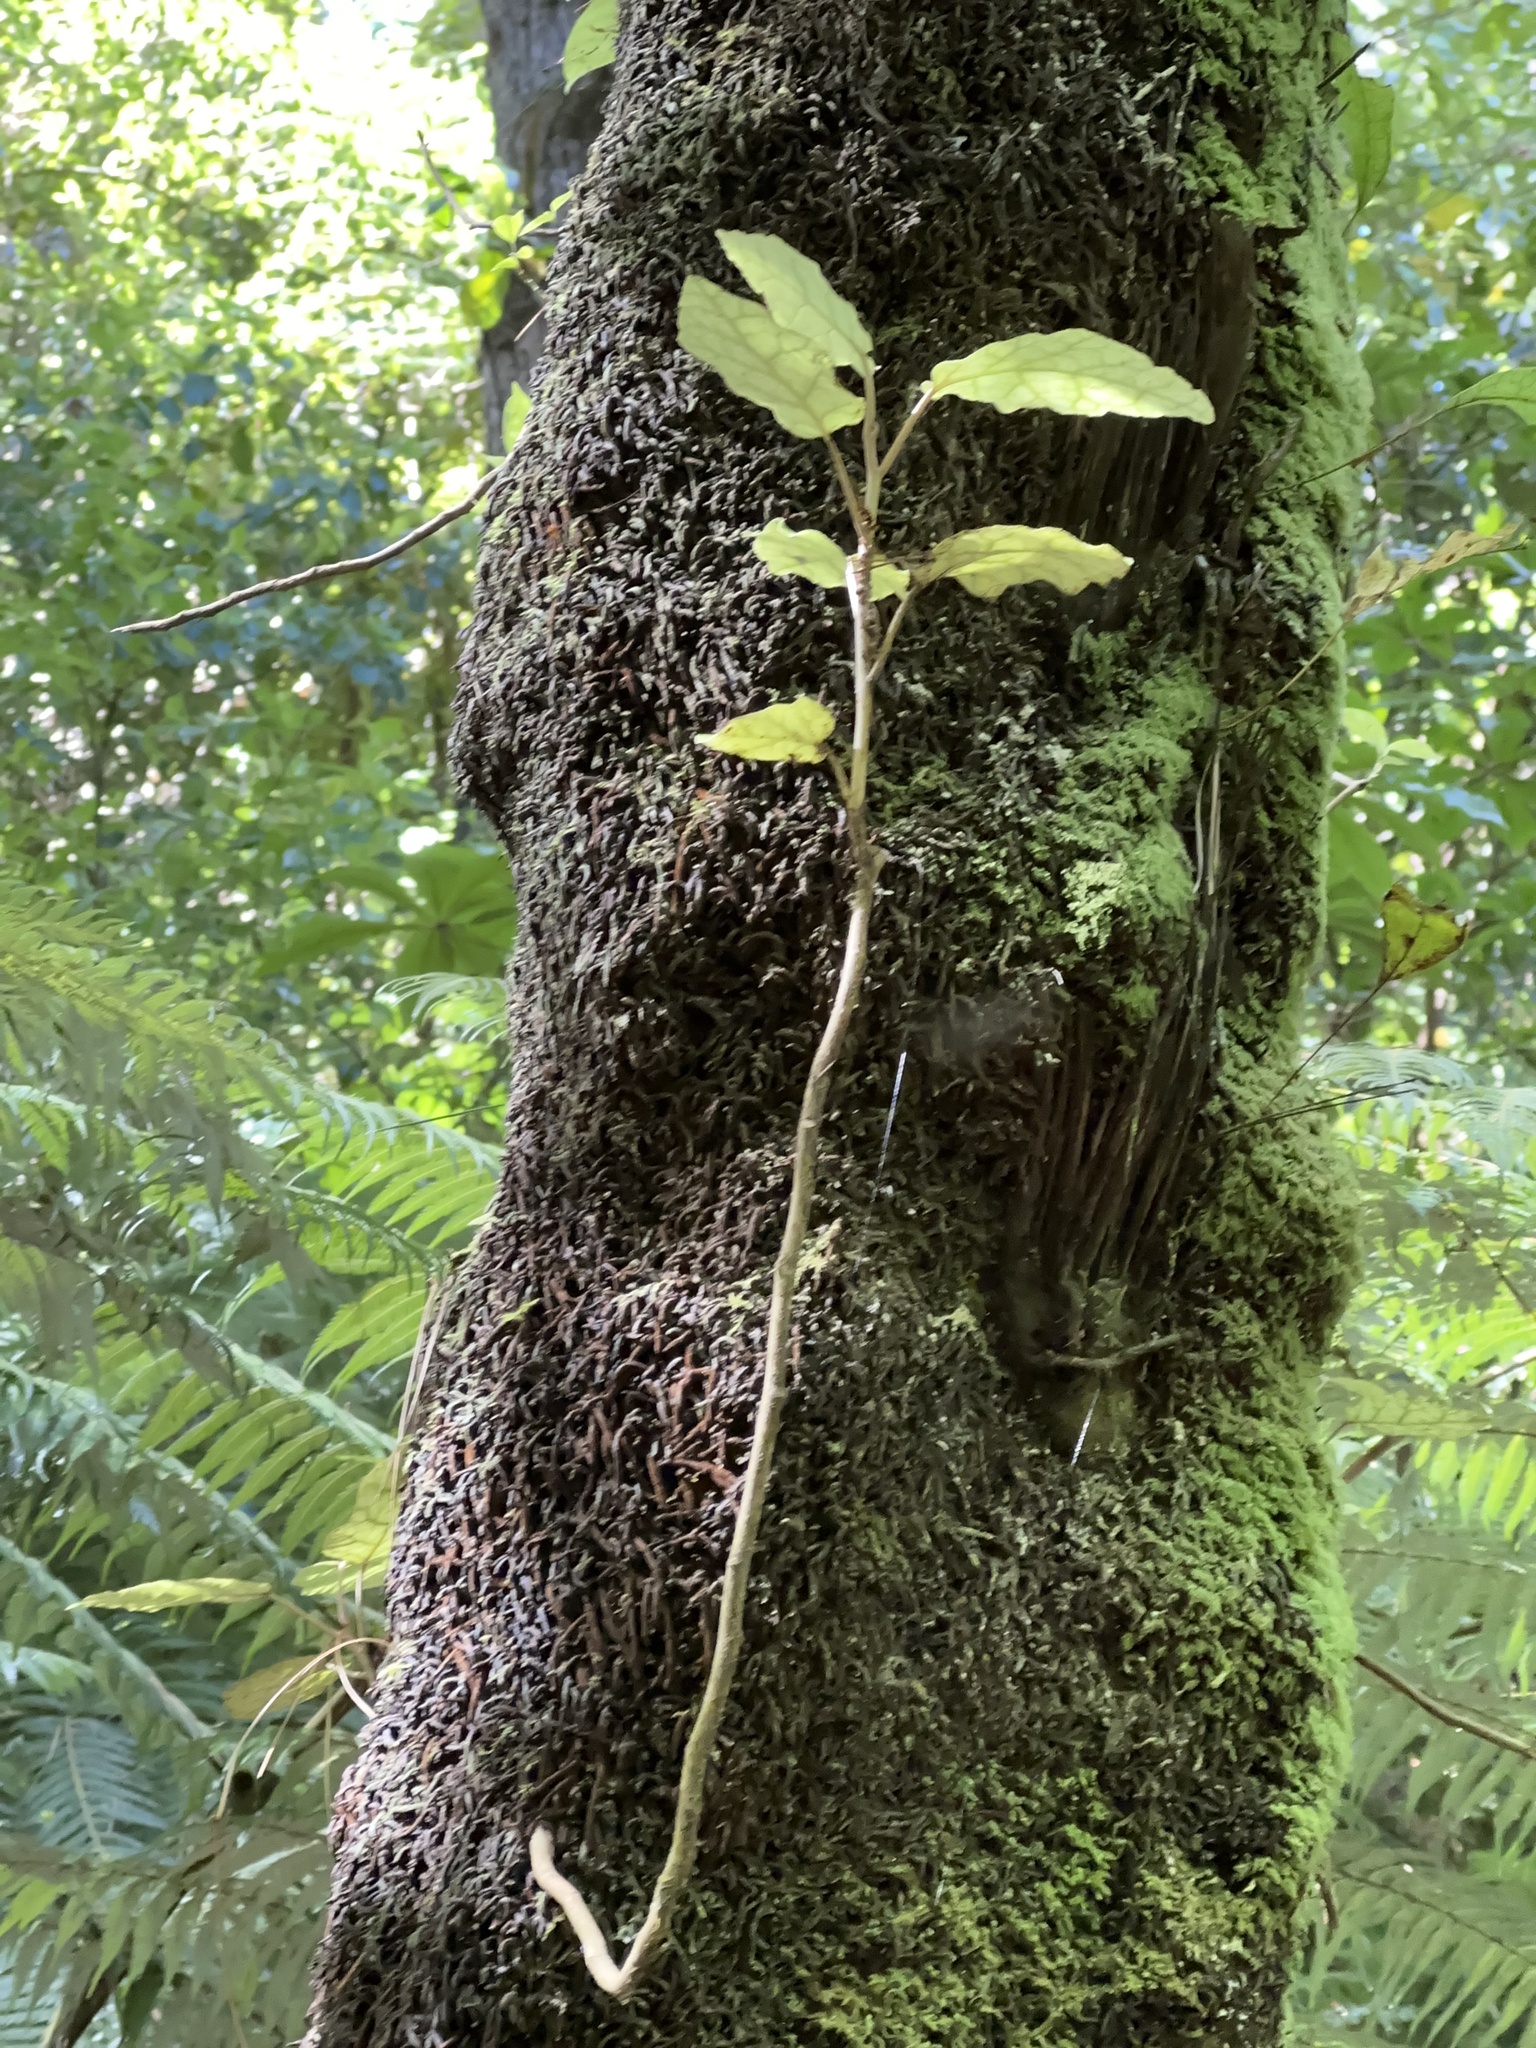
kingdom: Plantae
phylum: Tracheophyta
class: Magnoliopsida
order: Asterales
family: Asteraceae
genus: Brachyglottis
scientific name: Brachyglottis repanda
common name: Hedge ragwort
